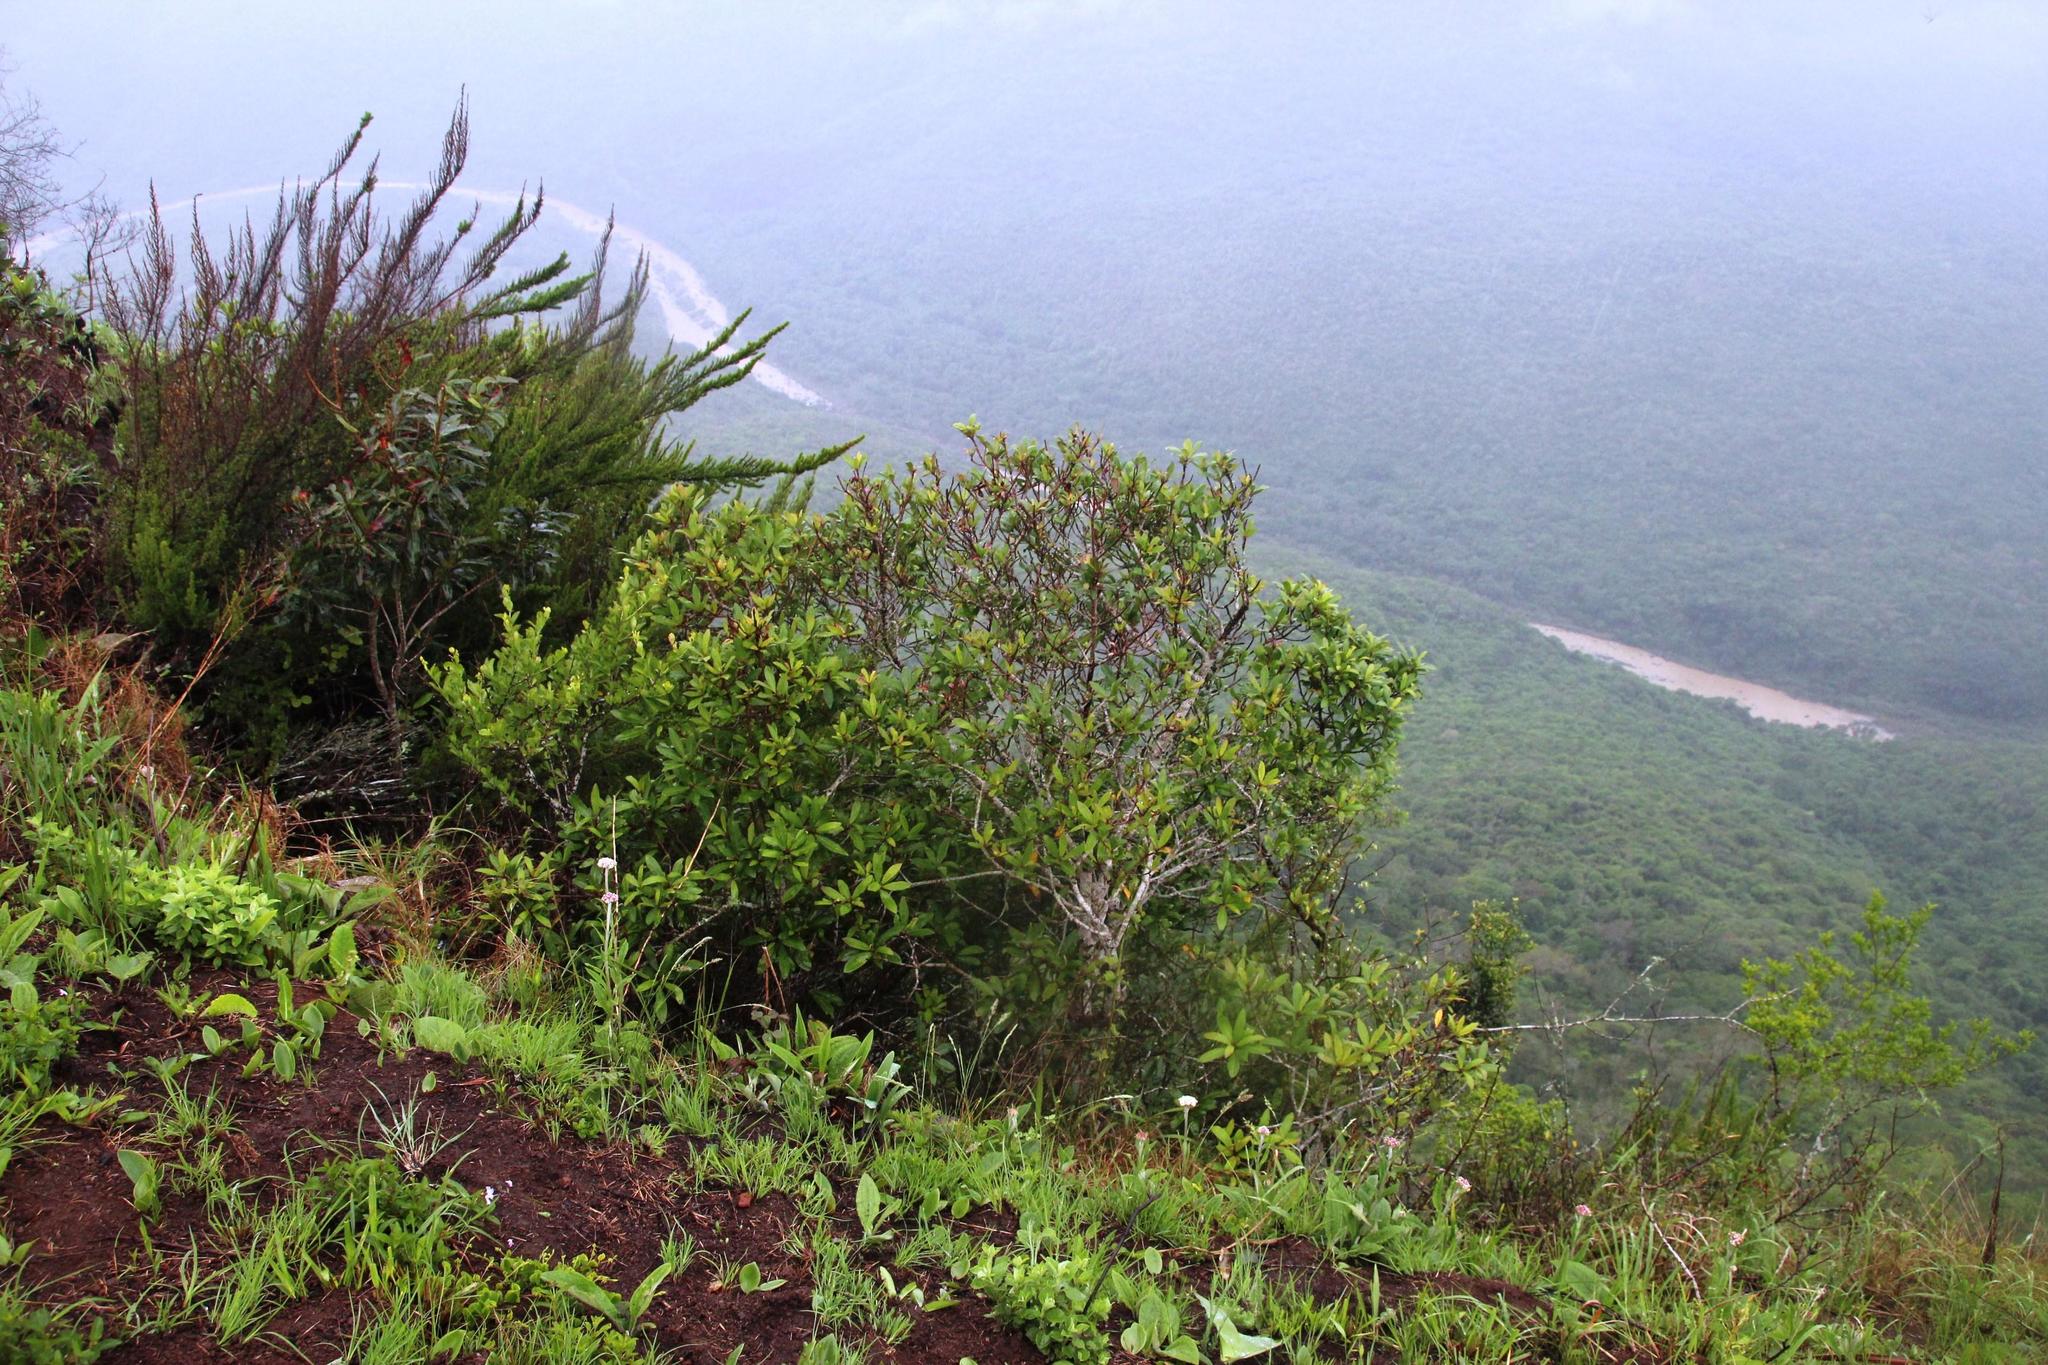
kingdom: Plantae
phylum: Tracheophyta
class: Magnoliopsida
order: Ericales
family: Primulaceae
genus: Myrsine
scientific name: Myrsine melanophloeos
